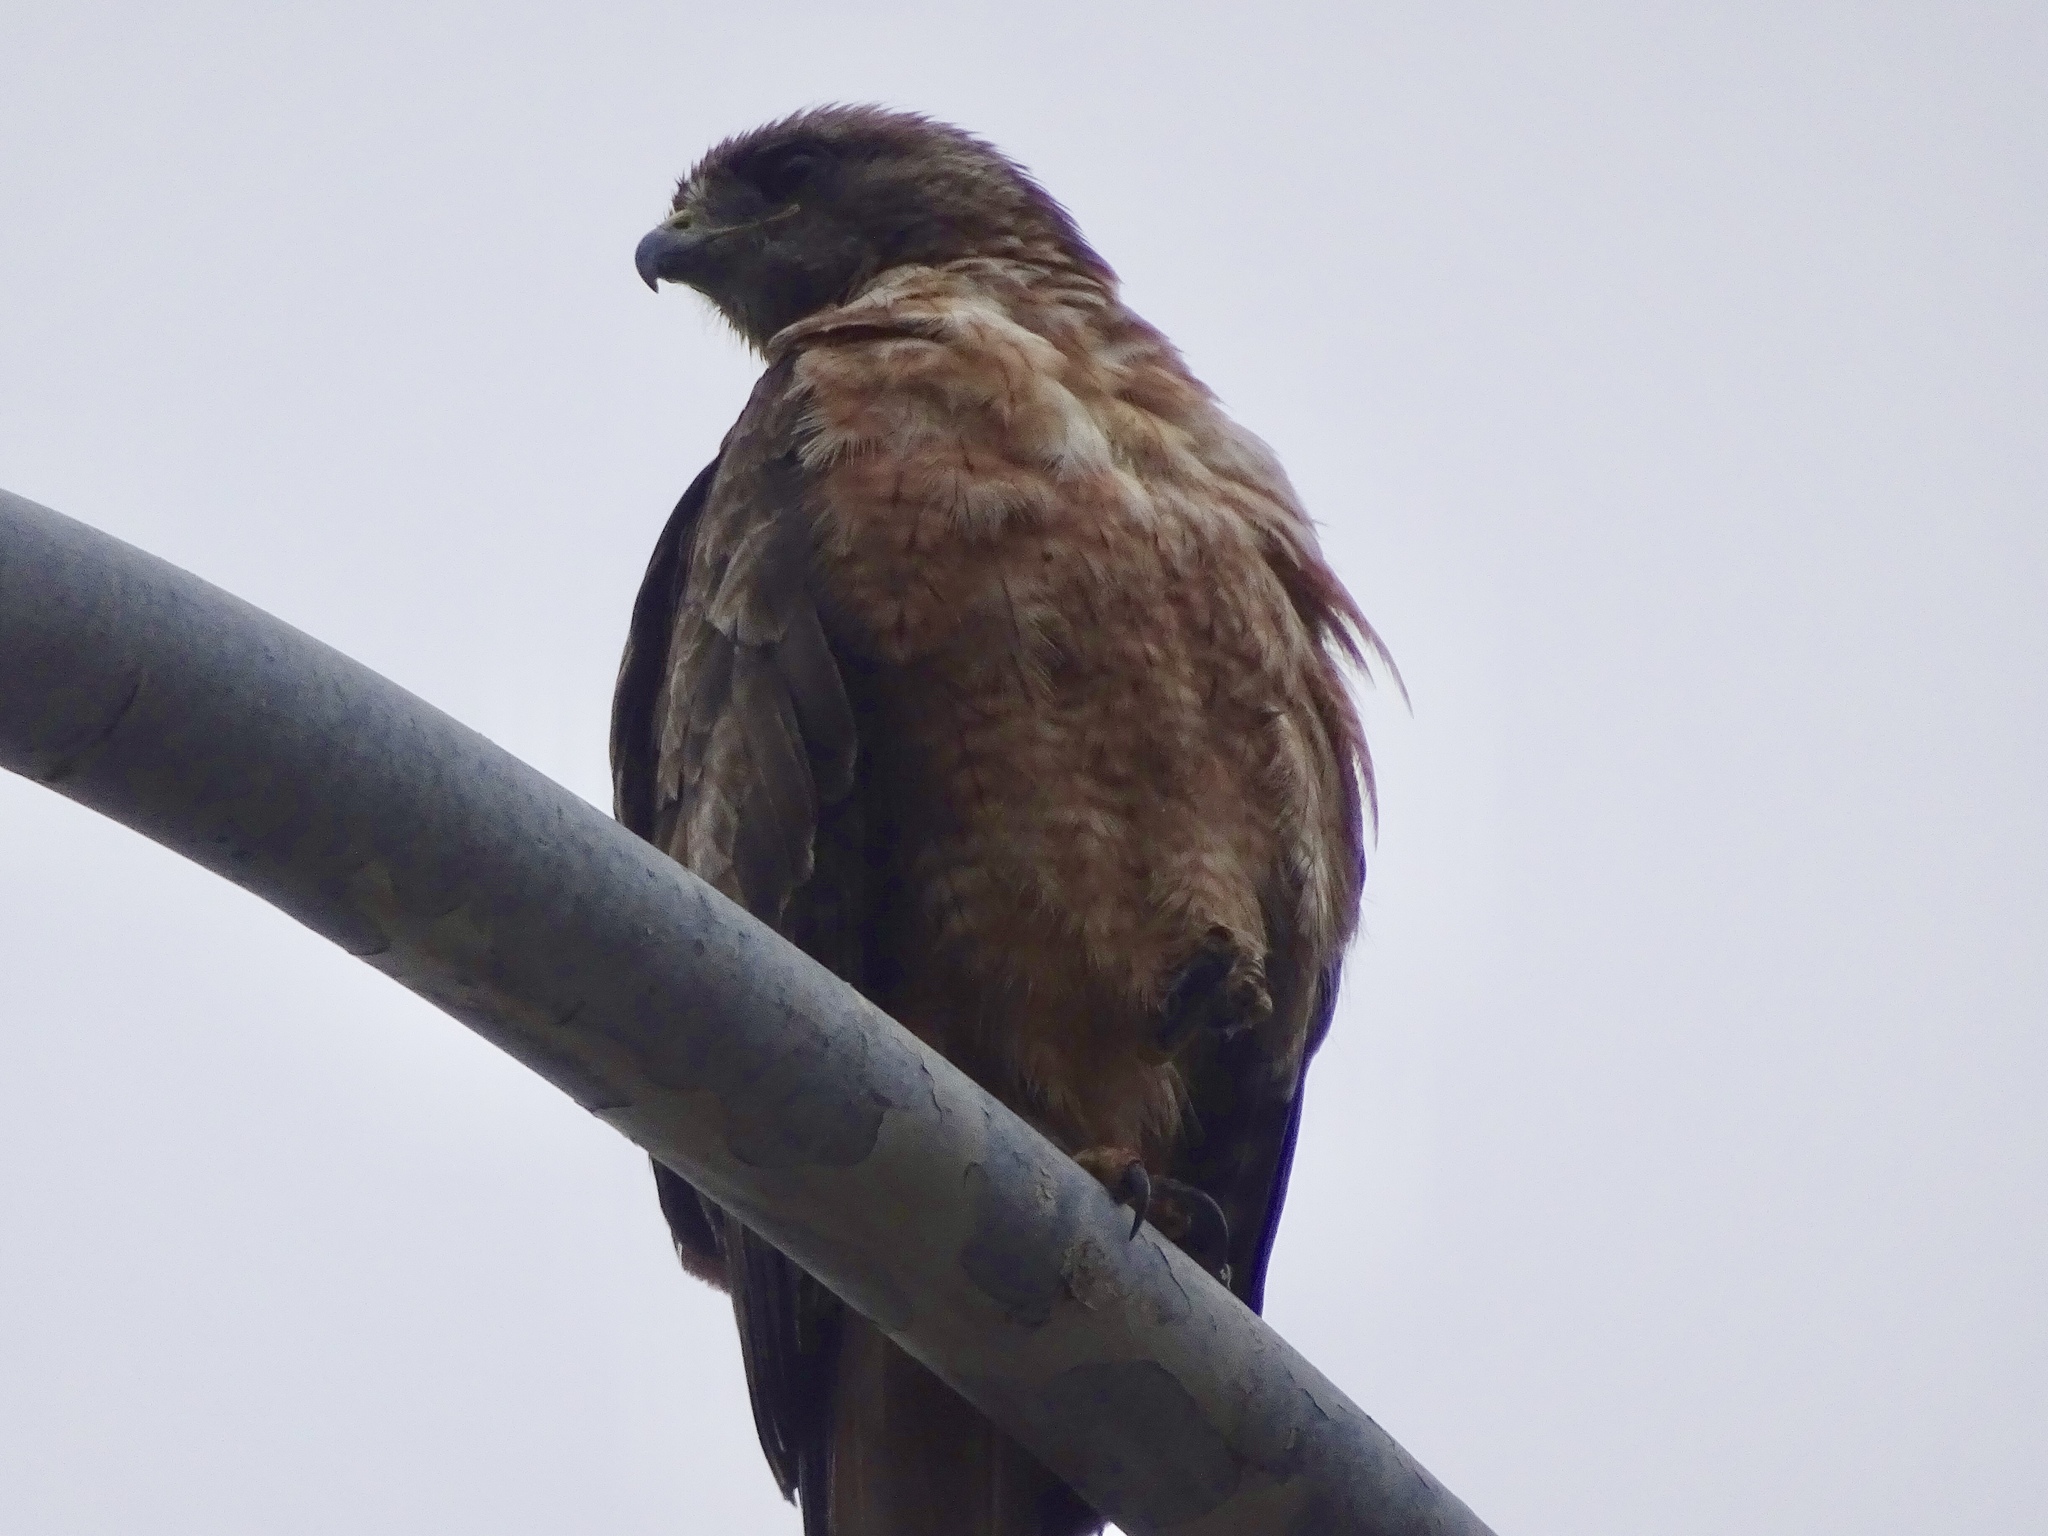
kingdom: Animalia
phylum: Chordata
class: Aves
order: Accipitriformes
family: Accipitridae
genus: Buteo
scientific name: Buteo lineatus
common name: Red-shouldered hawk
